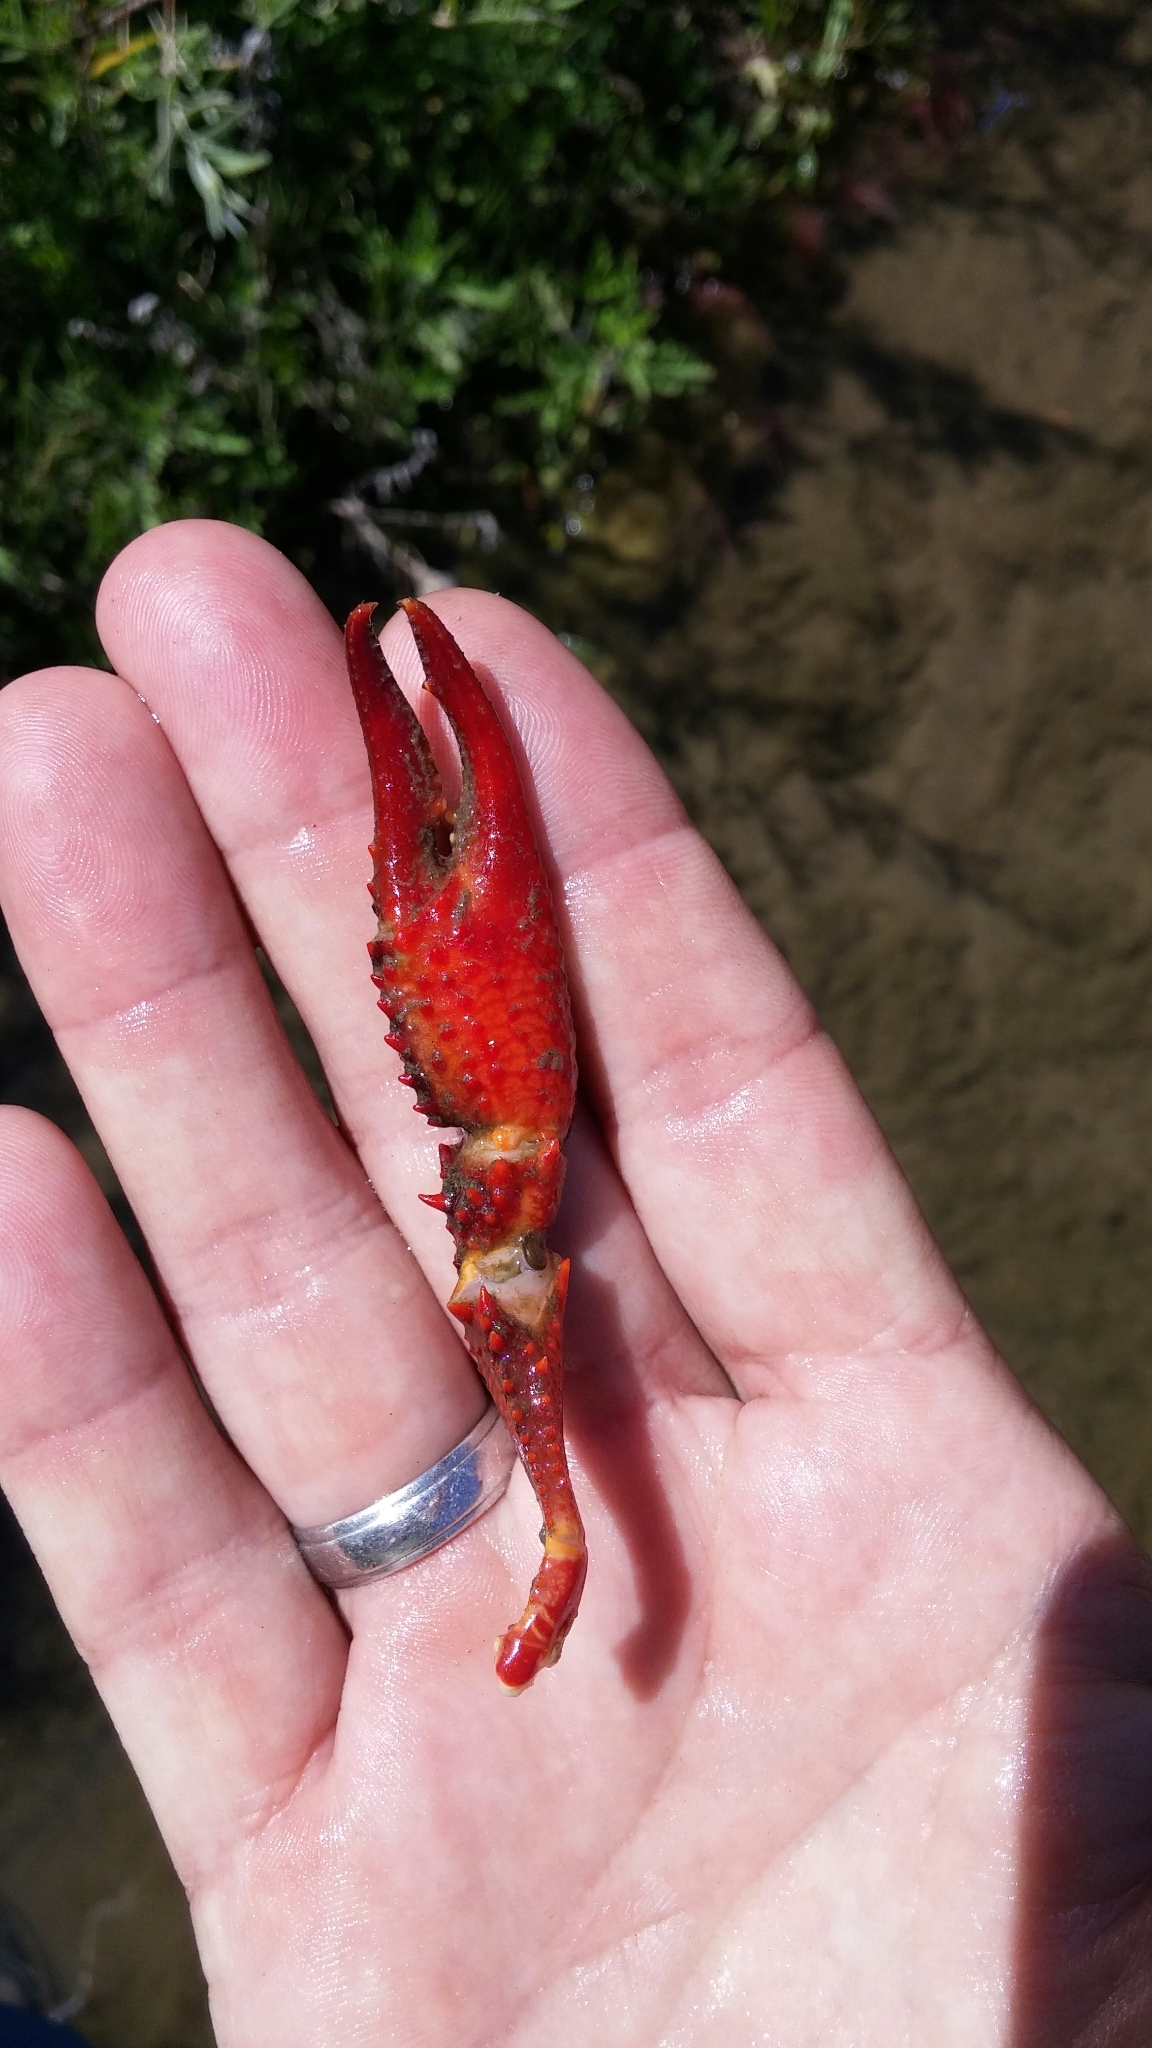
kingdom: Animalia
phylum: Arthropoda
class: Malacostraca
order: Decapoda
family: Cambaridae
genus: Procambarus
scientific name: Procambarus clarkii
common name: Red swamp crayfish
